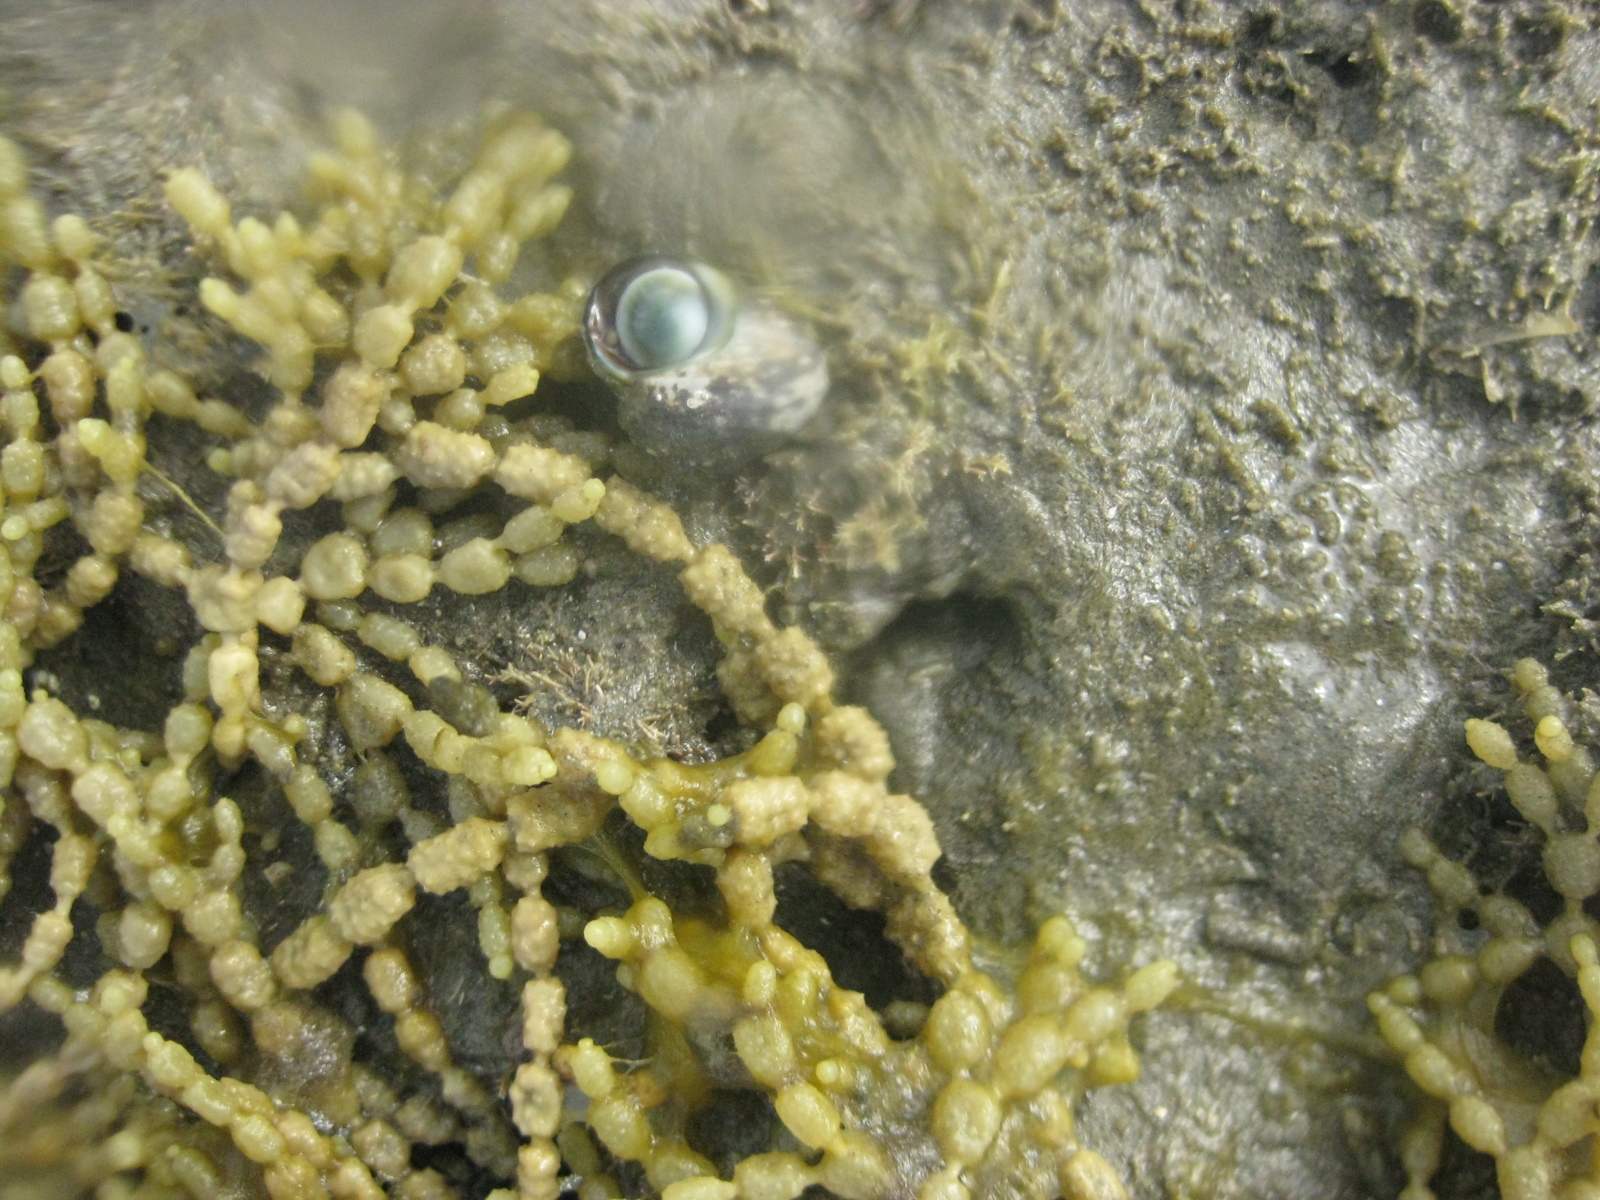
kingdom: Animalia
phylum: Mollusca
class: Gastropoda
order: Trochida
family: Turbinidae
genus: Lunella
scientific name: Lunella smaragda
